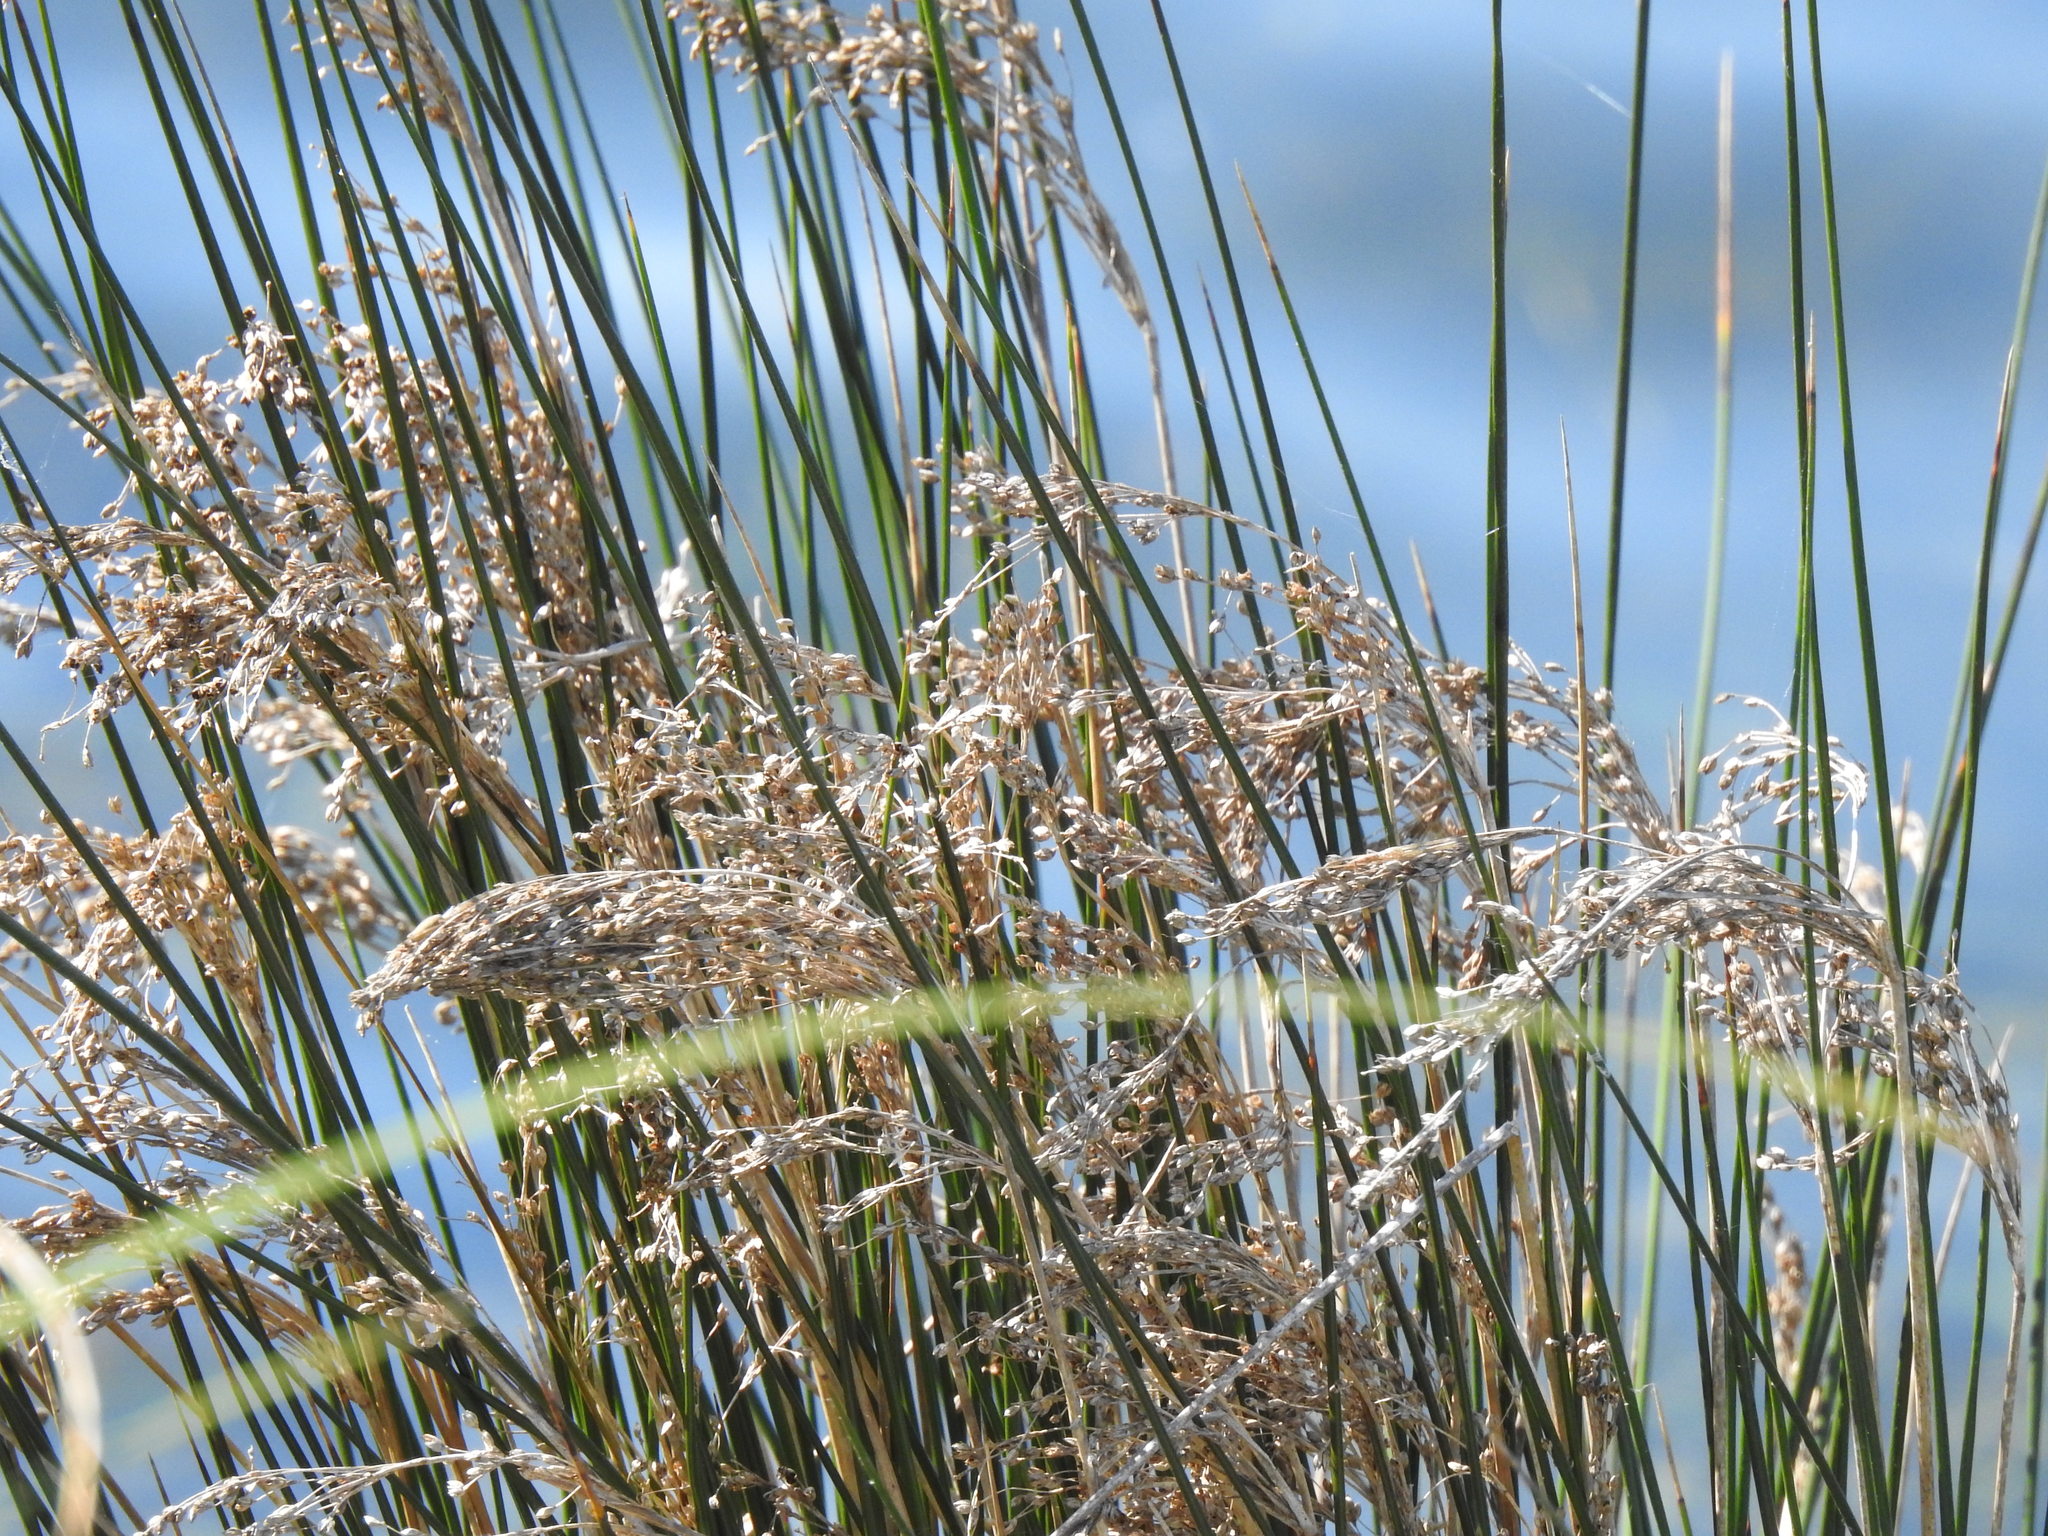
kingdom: Plantae
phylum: Tracheophyta
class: Liliopsida
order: Poales
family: Juncaceae
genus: Juncus
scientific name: Juncus maritimus
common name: Sea rush
